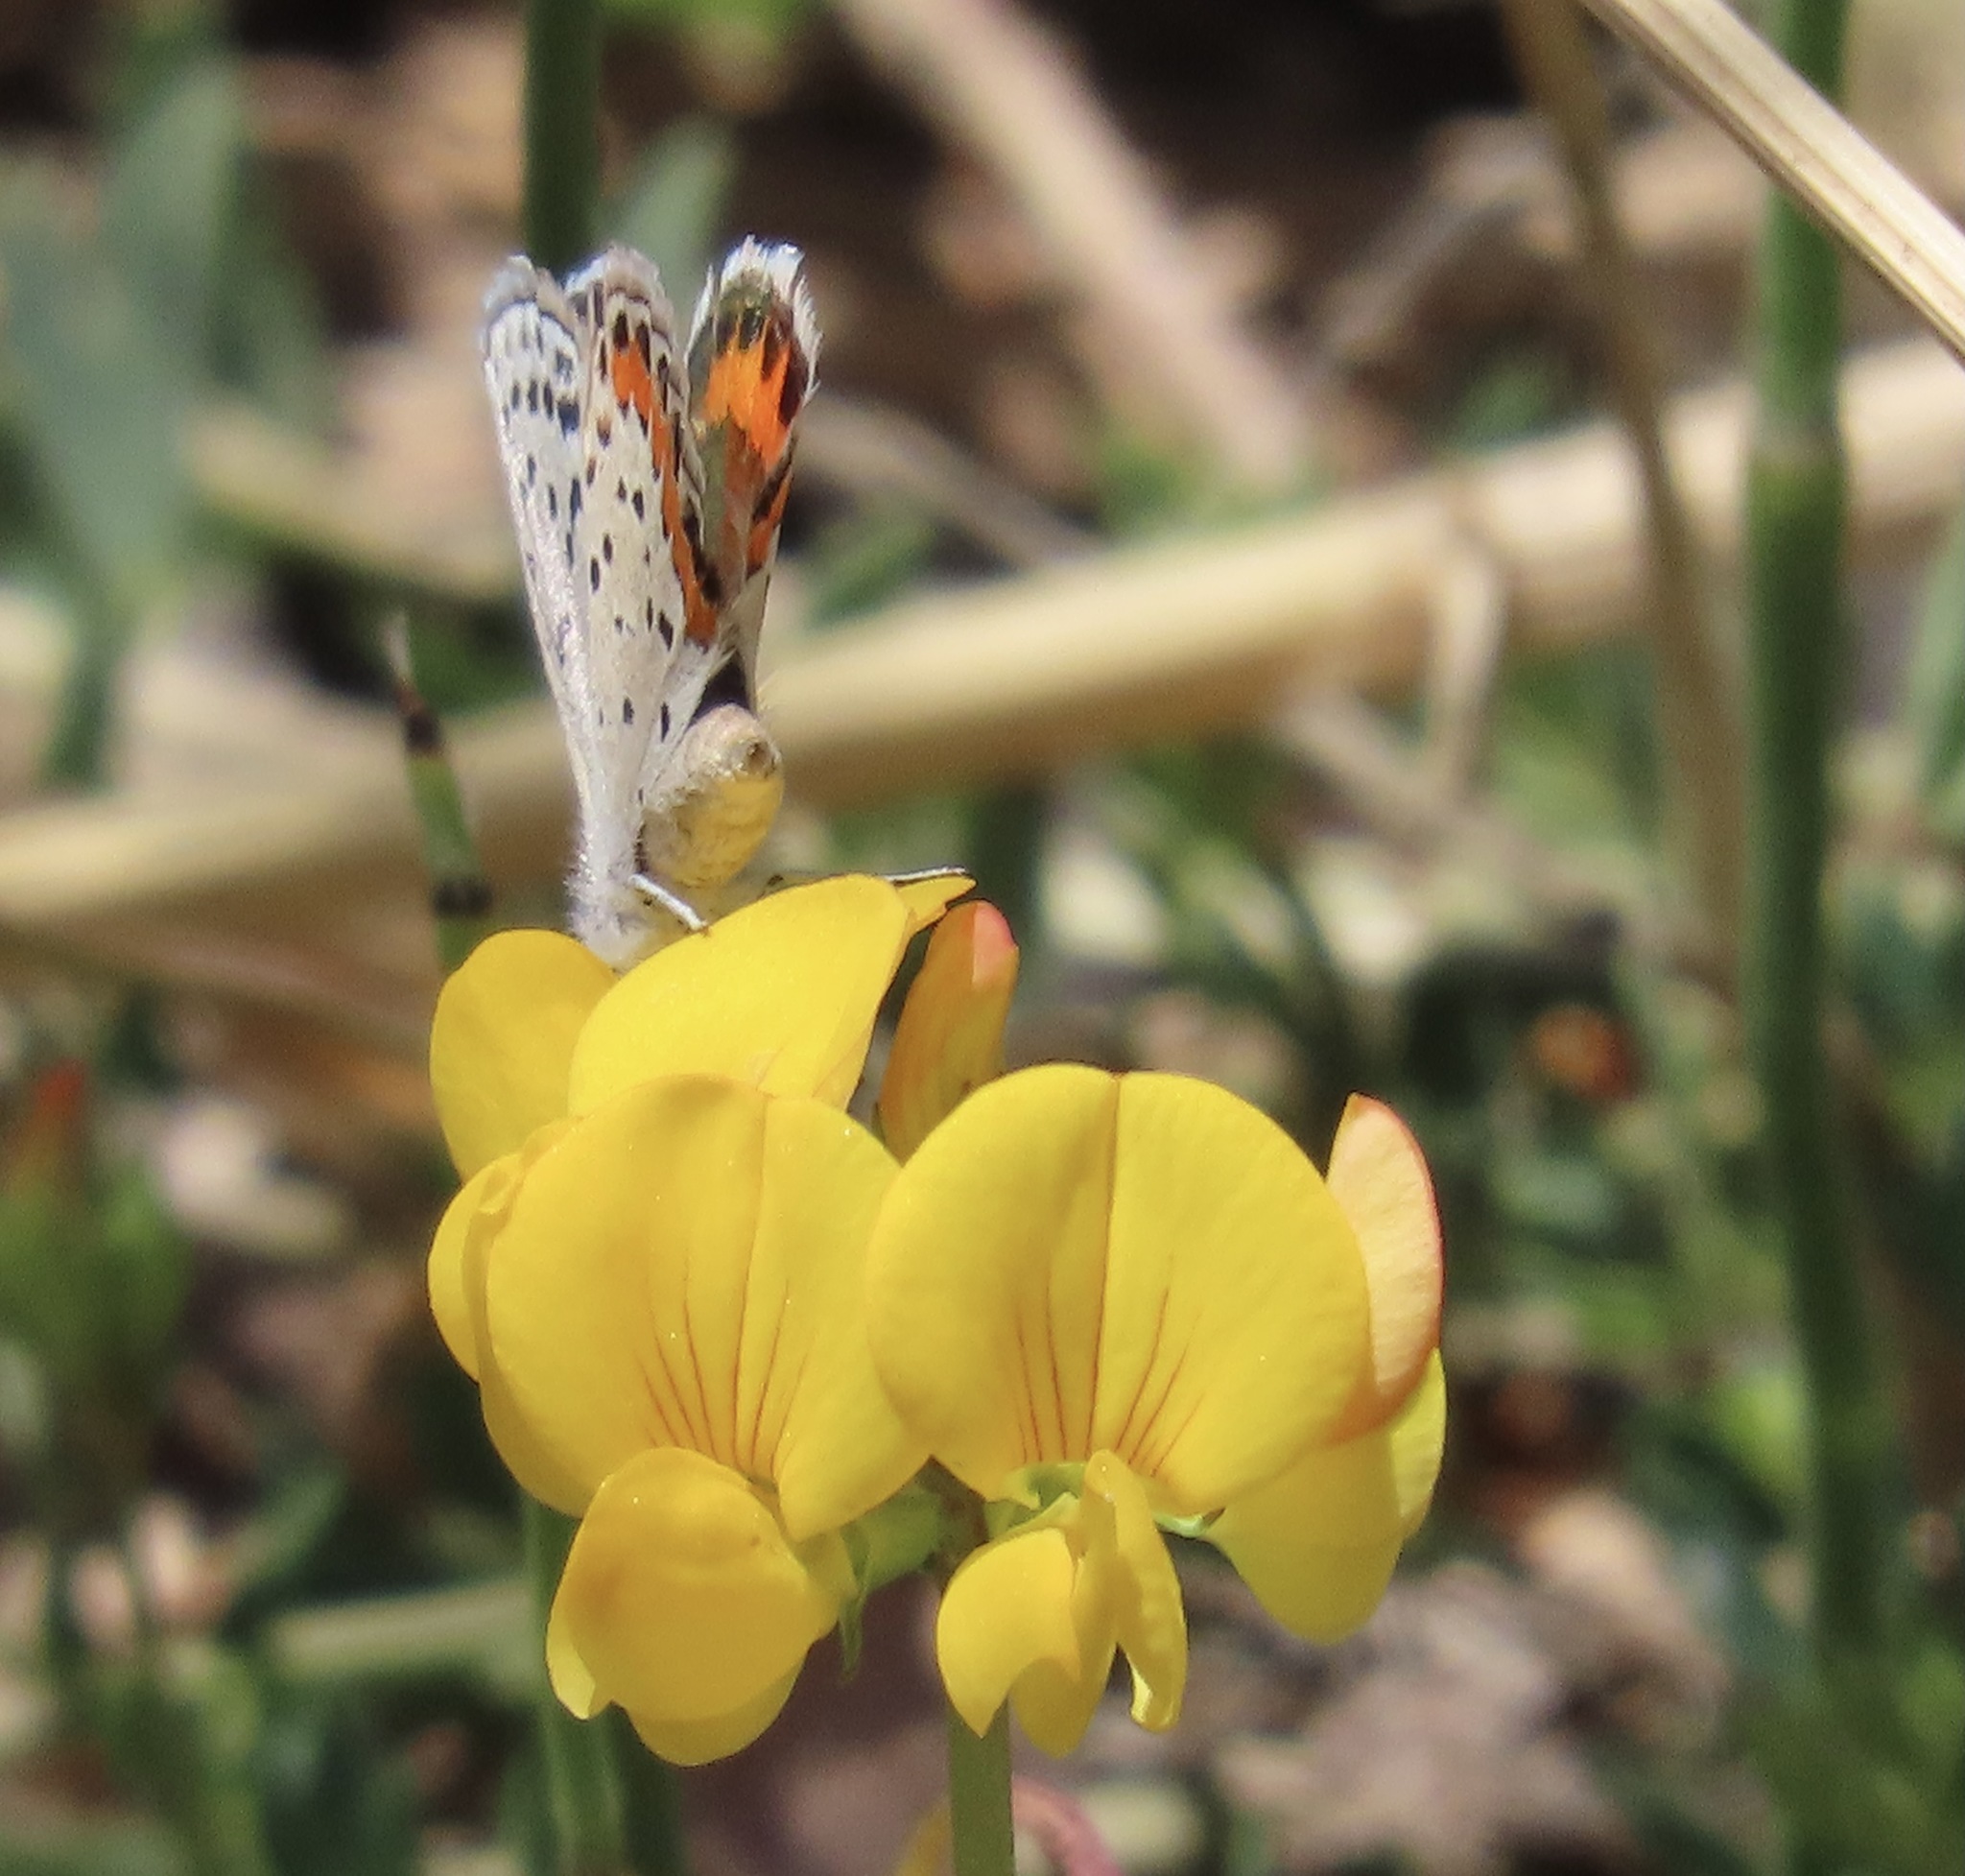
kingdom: Animalia
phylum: Arthropoda
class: Insecta
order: Lepidoptera
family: Lycaenidae
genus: Icaricia
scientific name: Icaricia acmon
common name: Acmon blue
